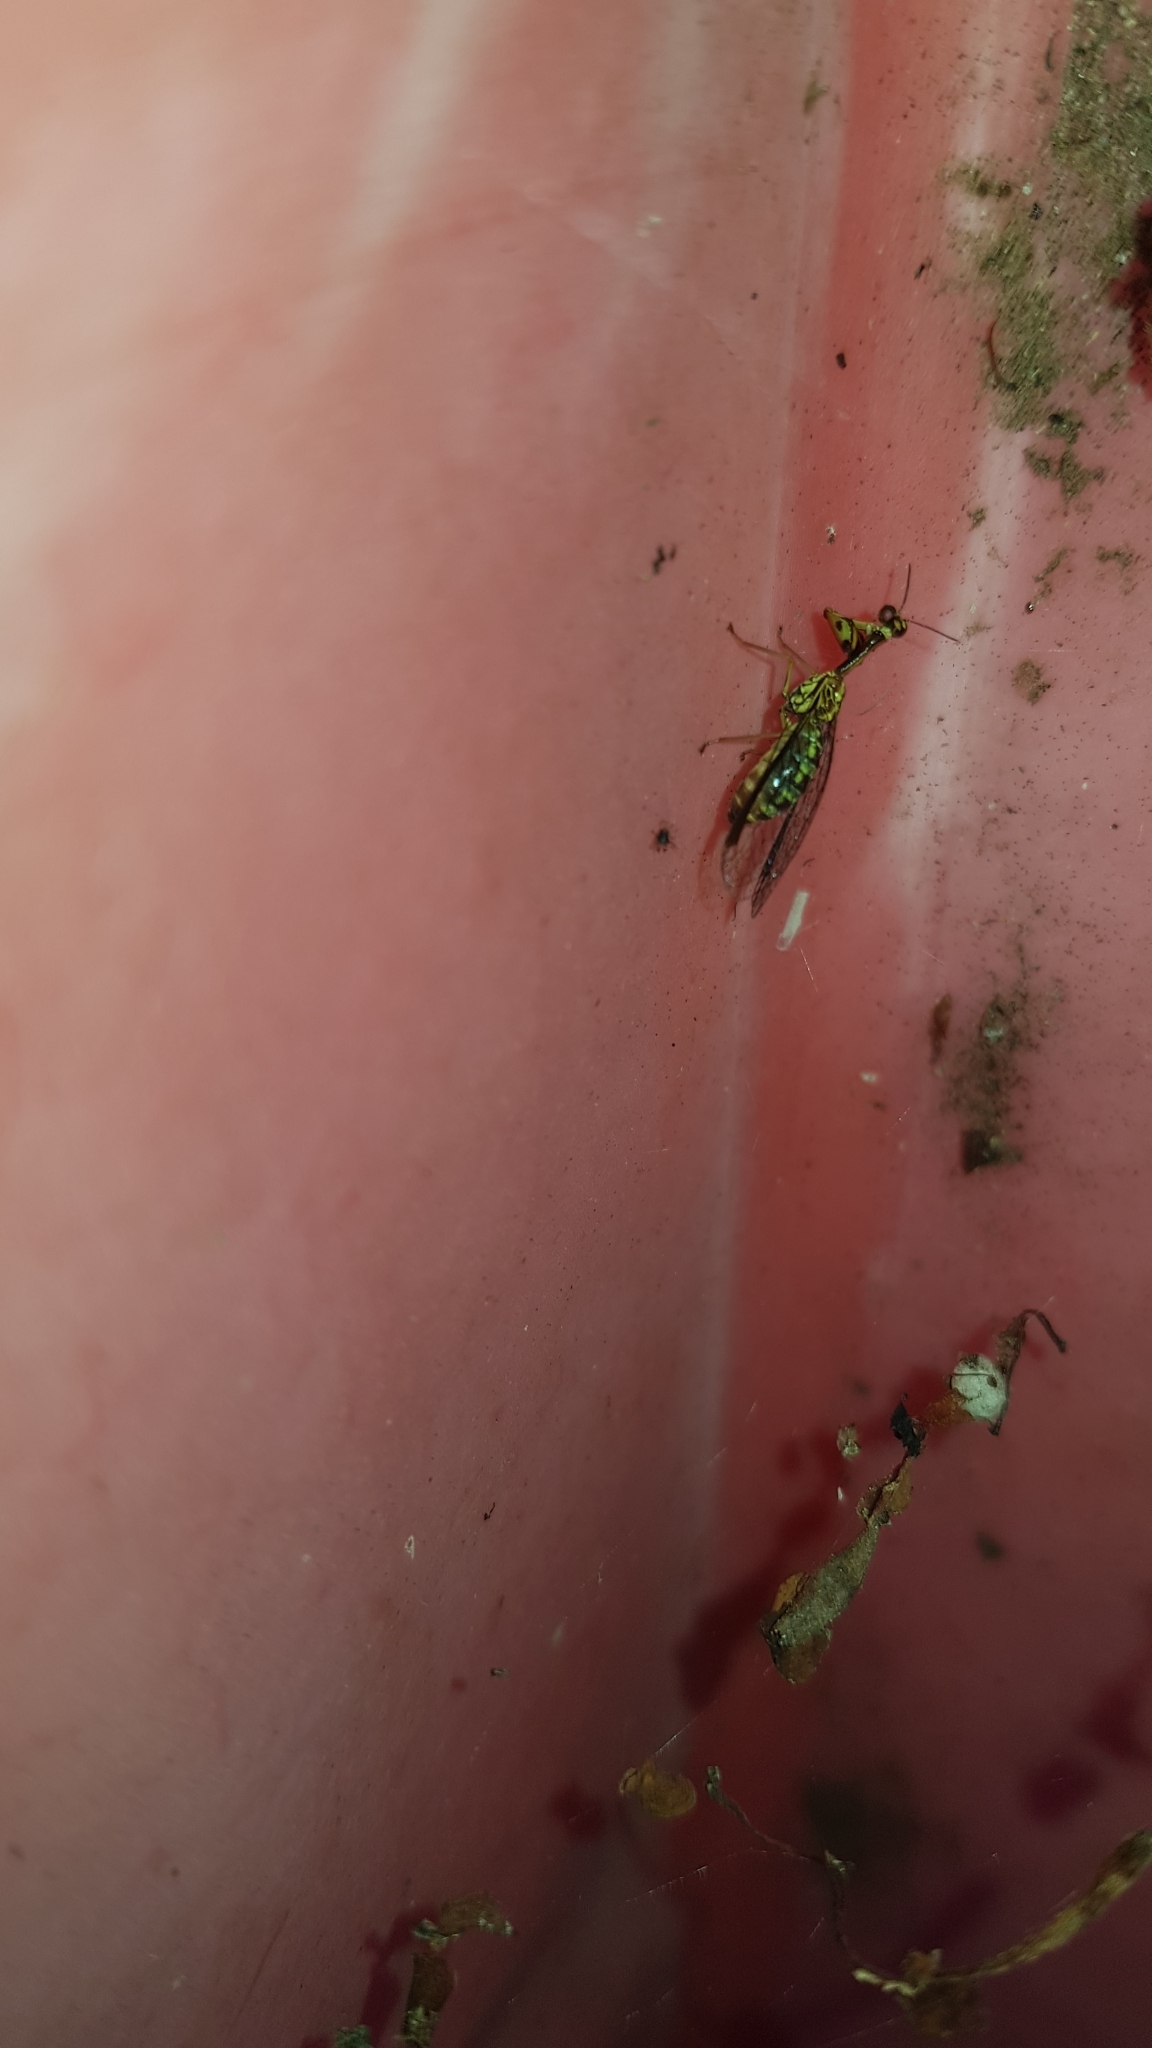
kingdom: Animalia
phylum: Arthropoda
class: Insecta
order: Neuroptera
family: Mantispidae
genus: Spaminta
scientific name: Spaminta minjerribae
